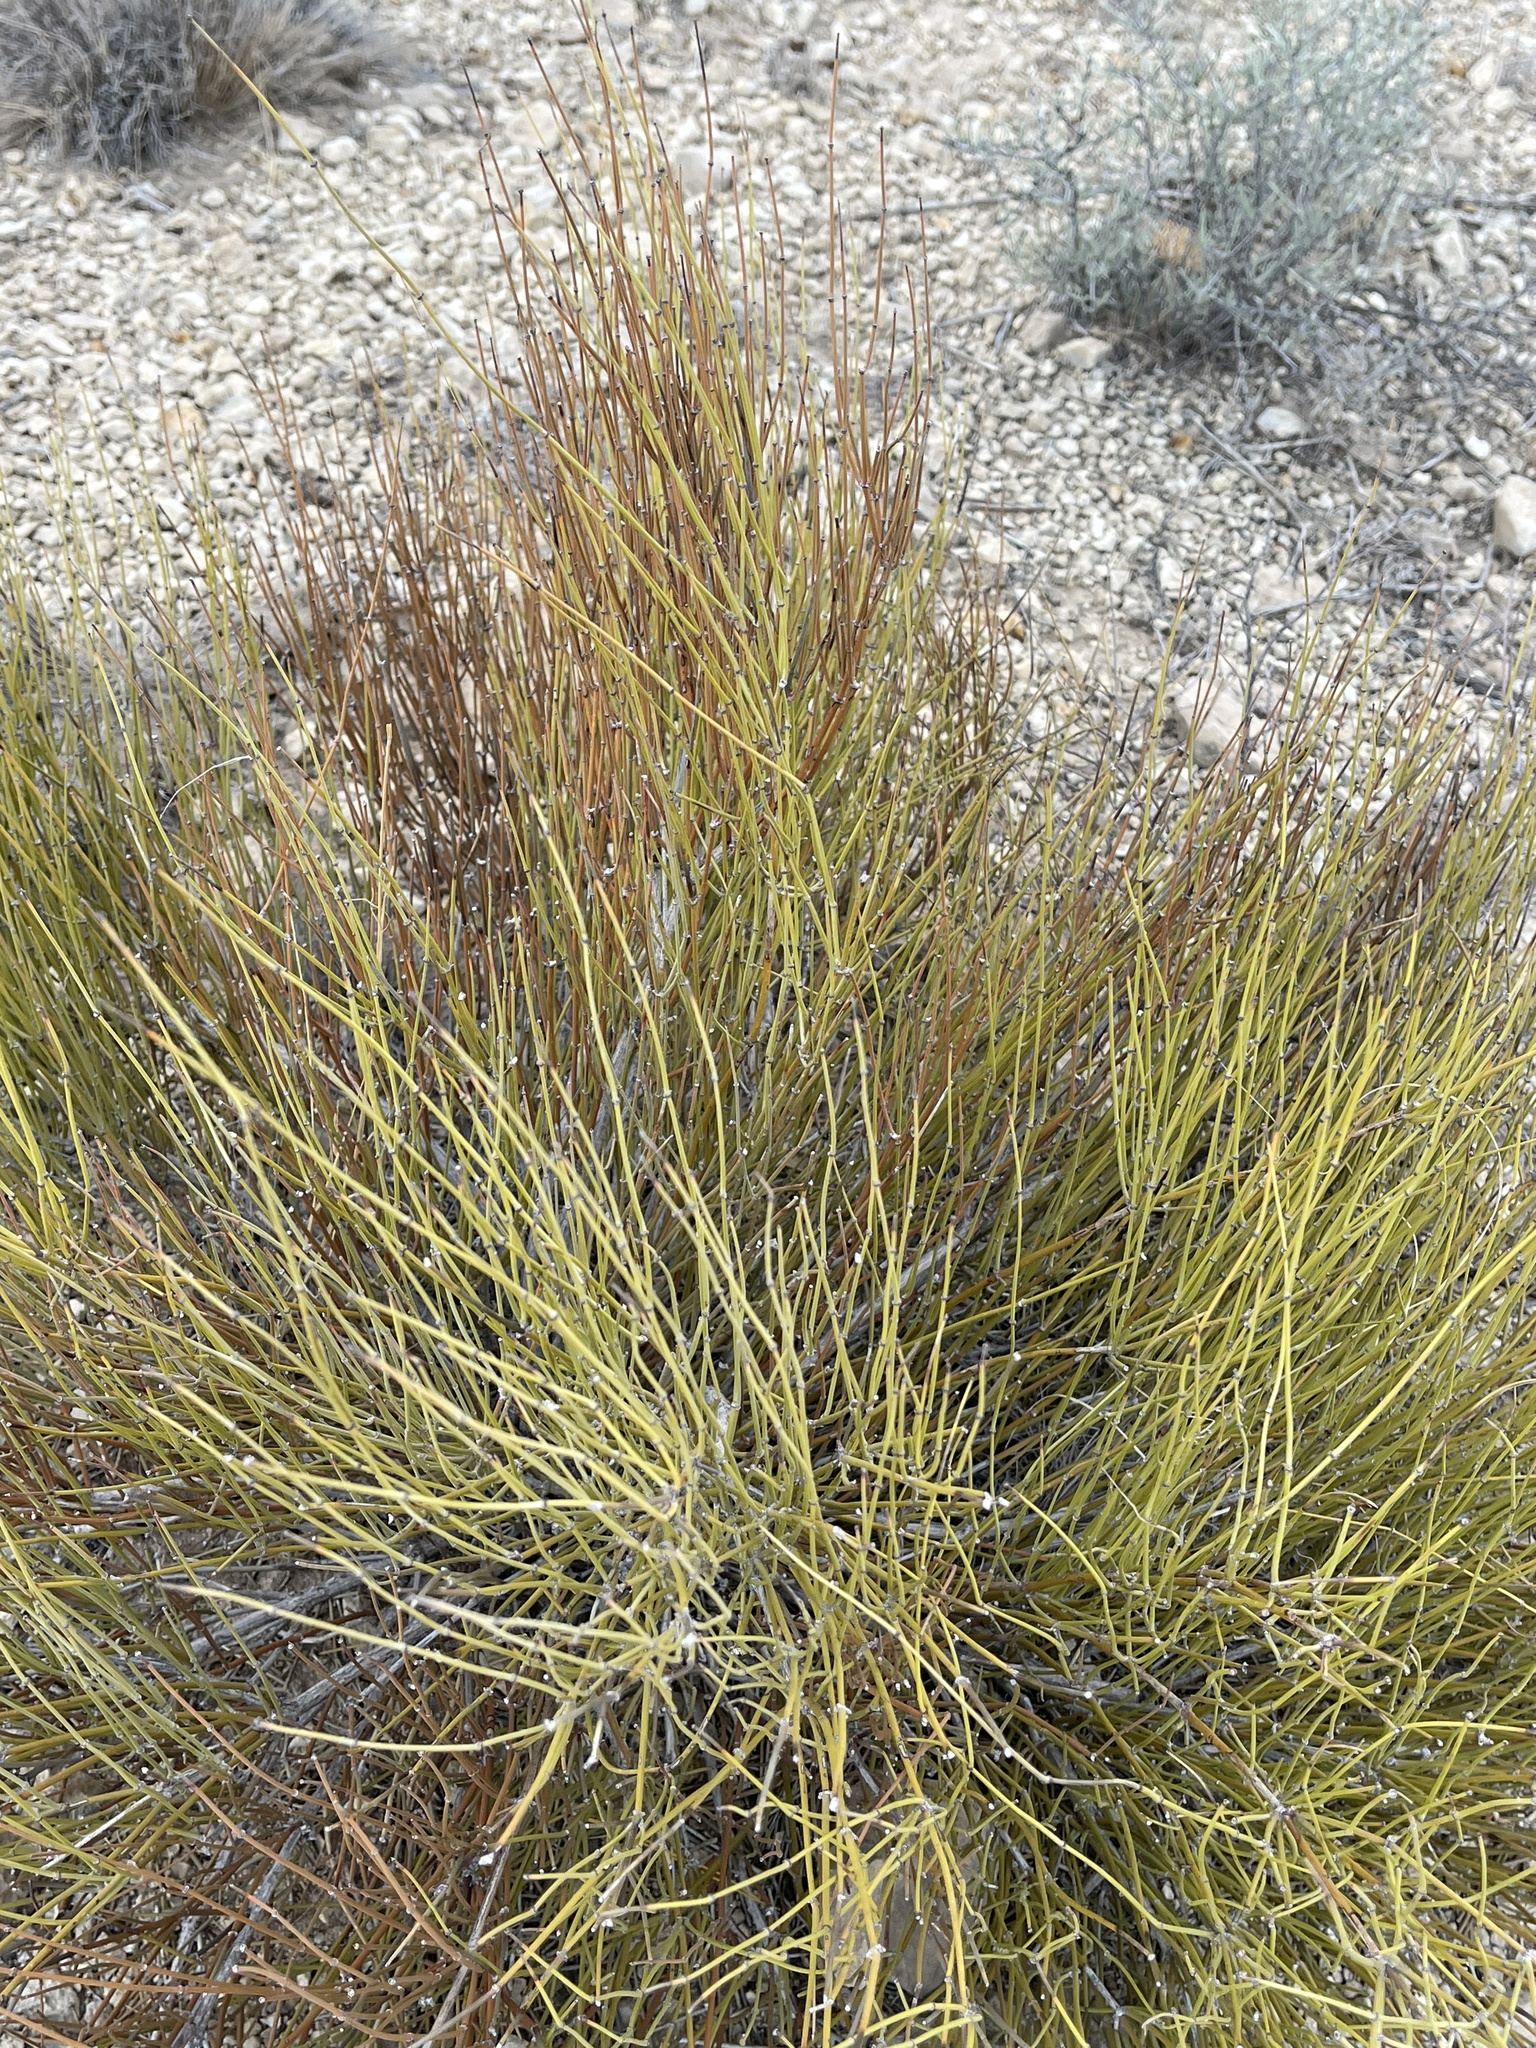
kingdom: Plantae
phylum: Tracheophyta
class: Gnetopsida
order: Ephedrales
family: Ephedraceae
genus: Ephedra
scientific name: Ephedra trifurca
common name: Mexican-tea
